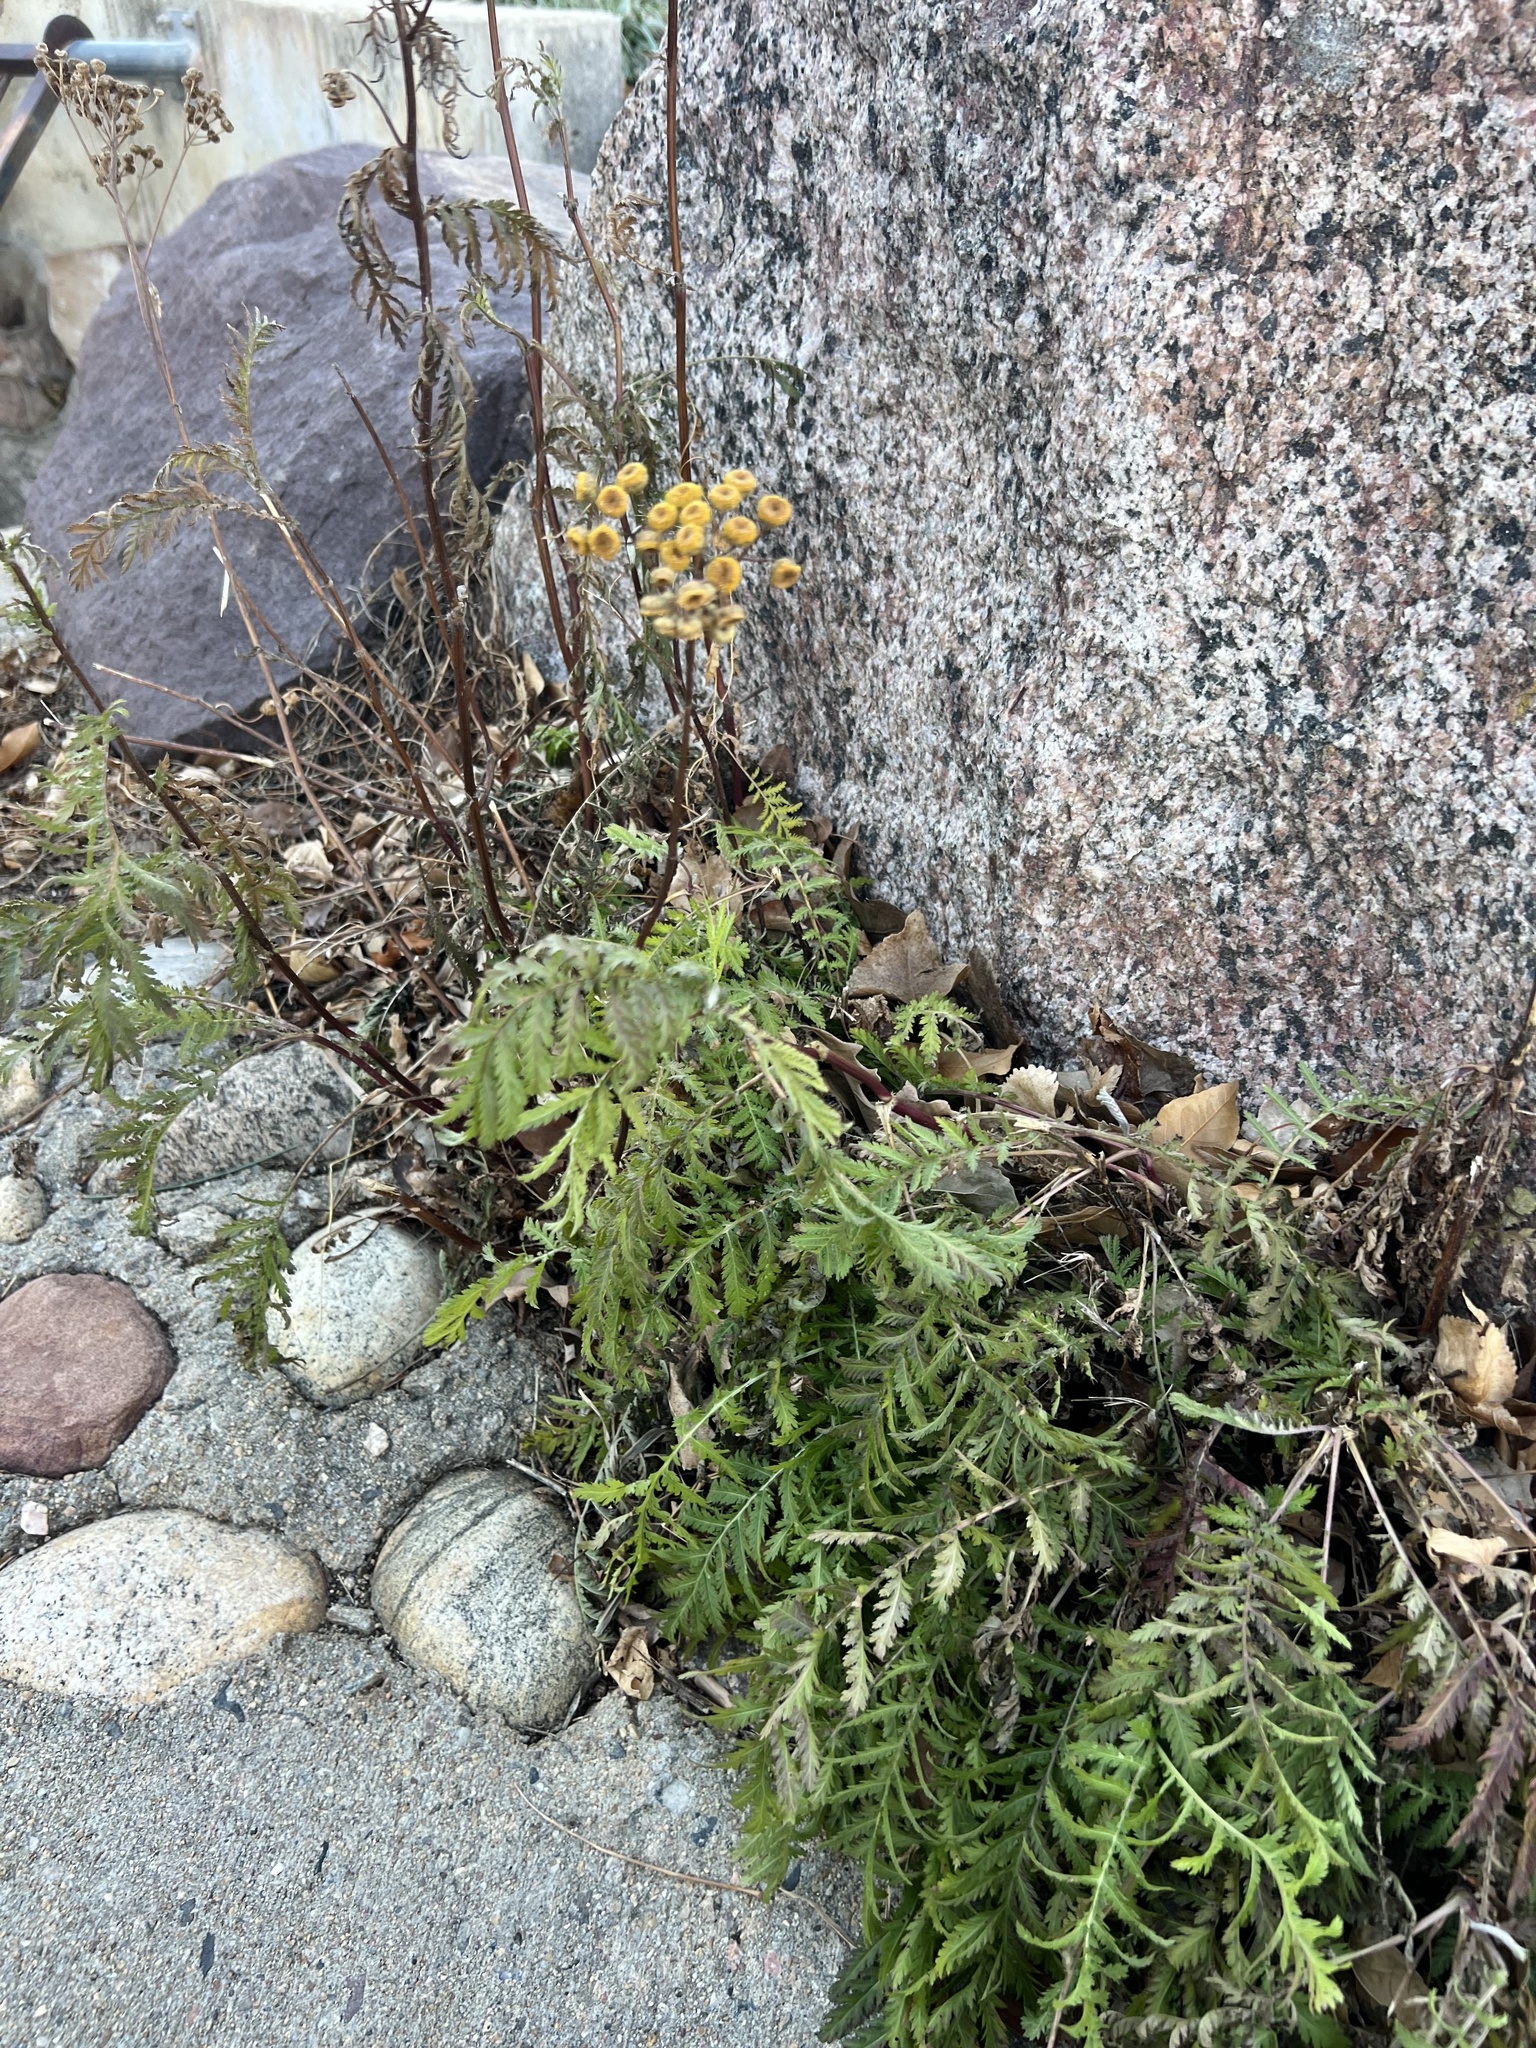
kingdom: Plantae
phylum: Tracheophyta
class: Magnoliopsida
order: Asterales
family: Asteraceae
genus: Tanacetum
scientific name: Tanacetum vulgare
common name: Common tansy
